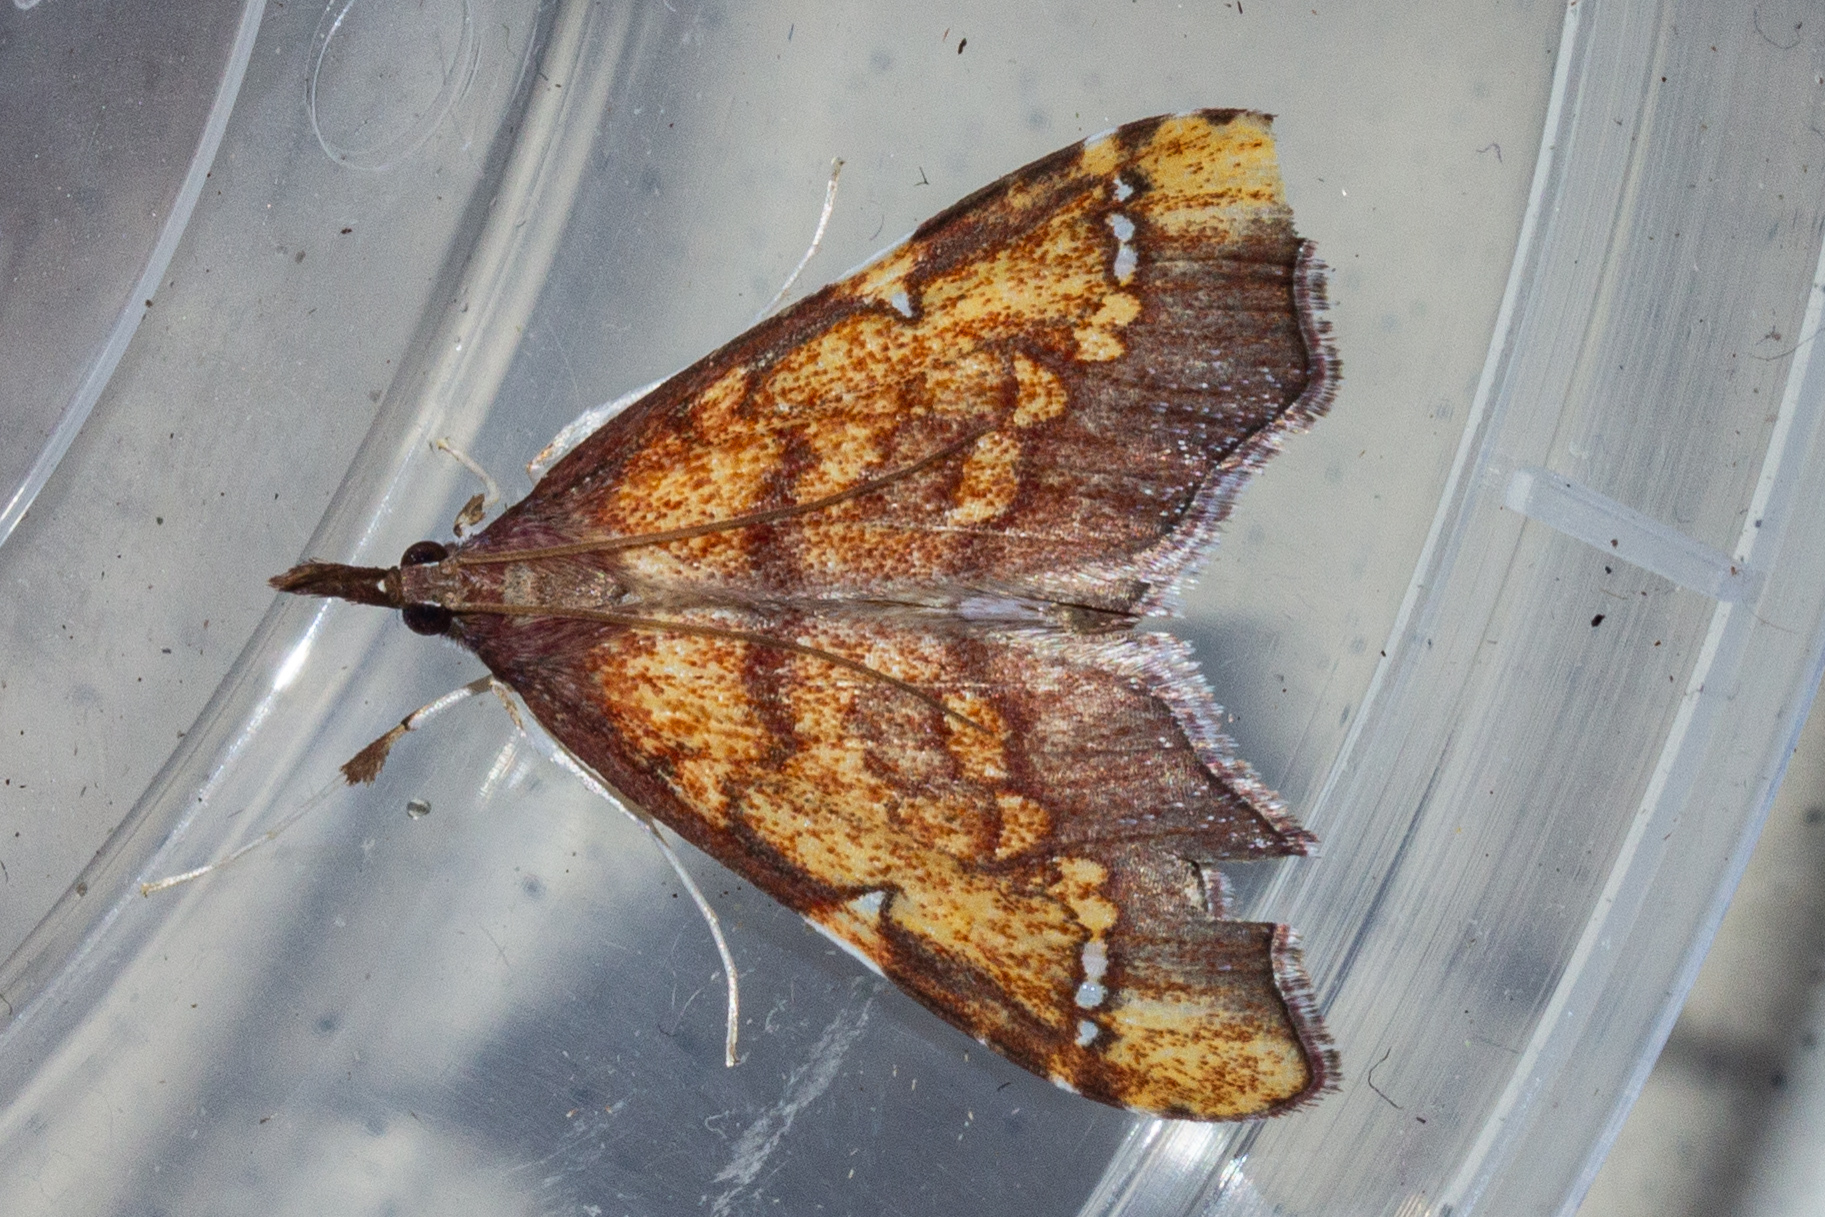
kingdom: Animalia
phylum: Arthropoda
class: Insecta
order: Lepidoptera
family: Crambidae
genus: Deana
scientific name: Deana hybreasalis
